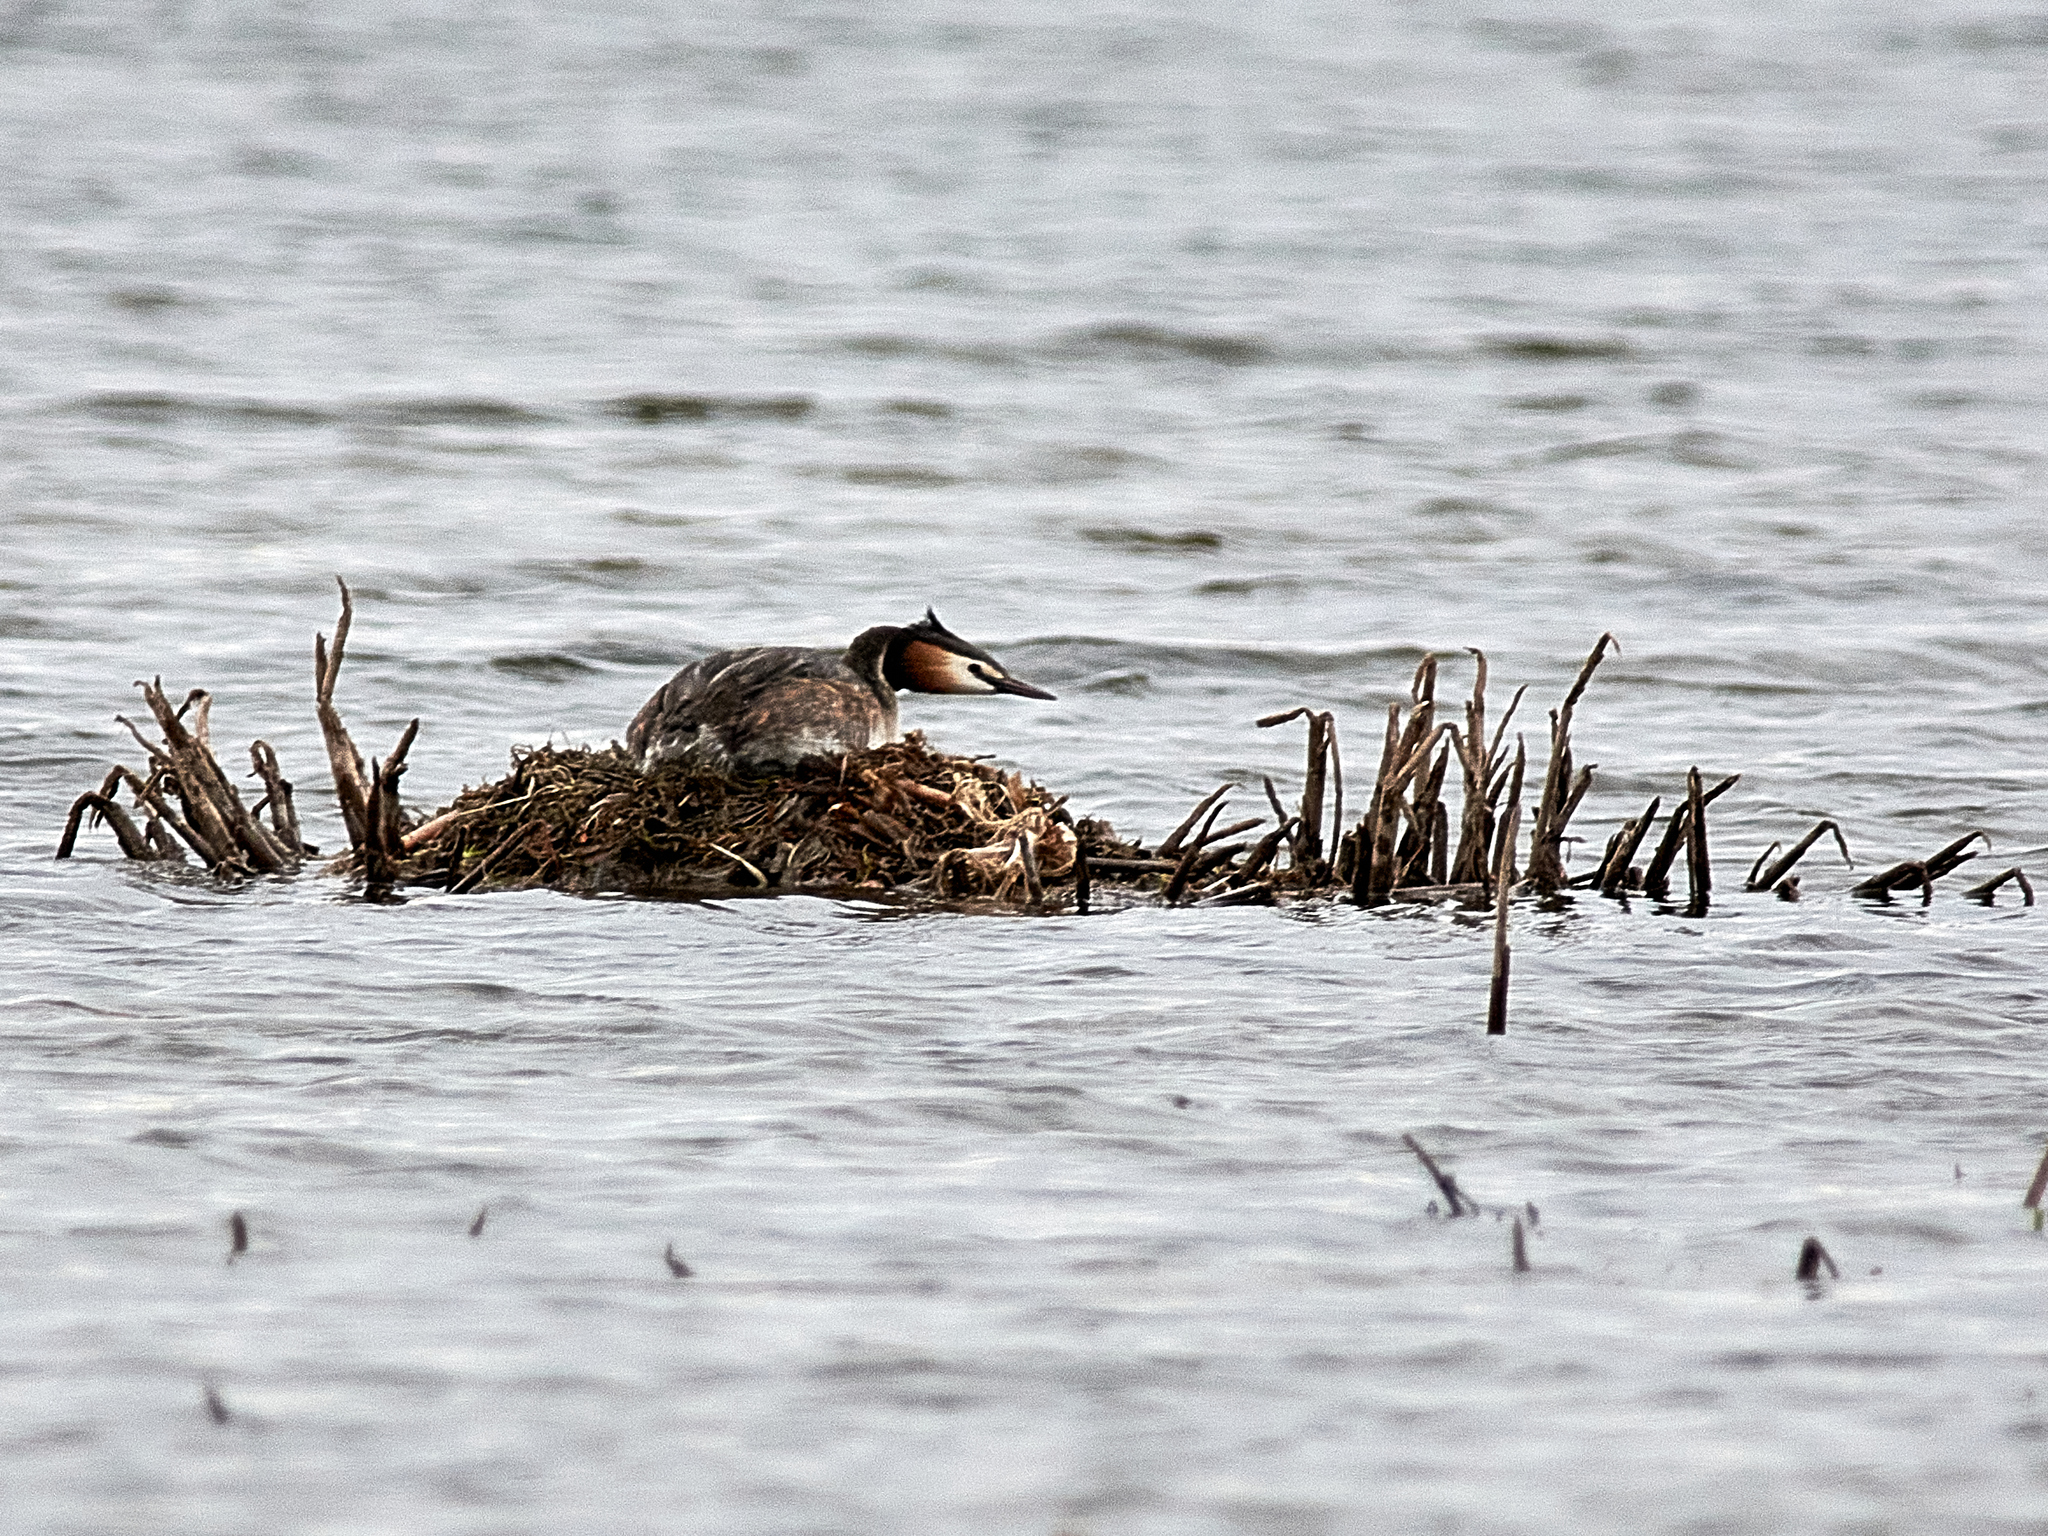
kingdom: Animalia
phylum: Chordata
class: Aves
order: Podicipediformes
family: Podicipedidae
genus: Podiceps
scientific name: Podiceps cristatus
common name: Great crested grebe
